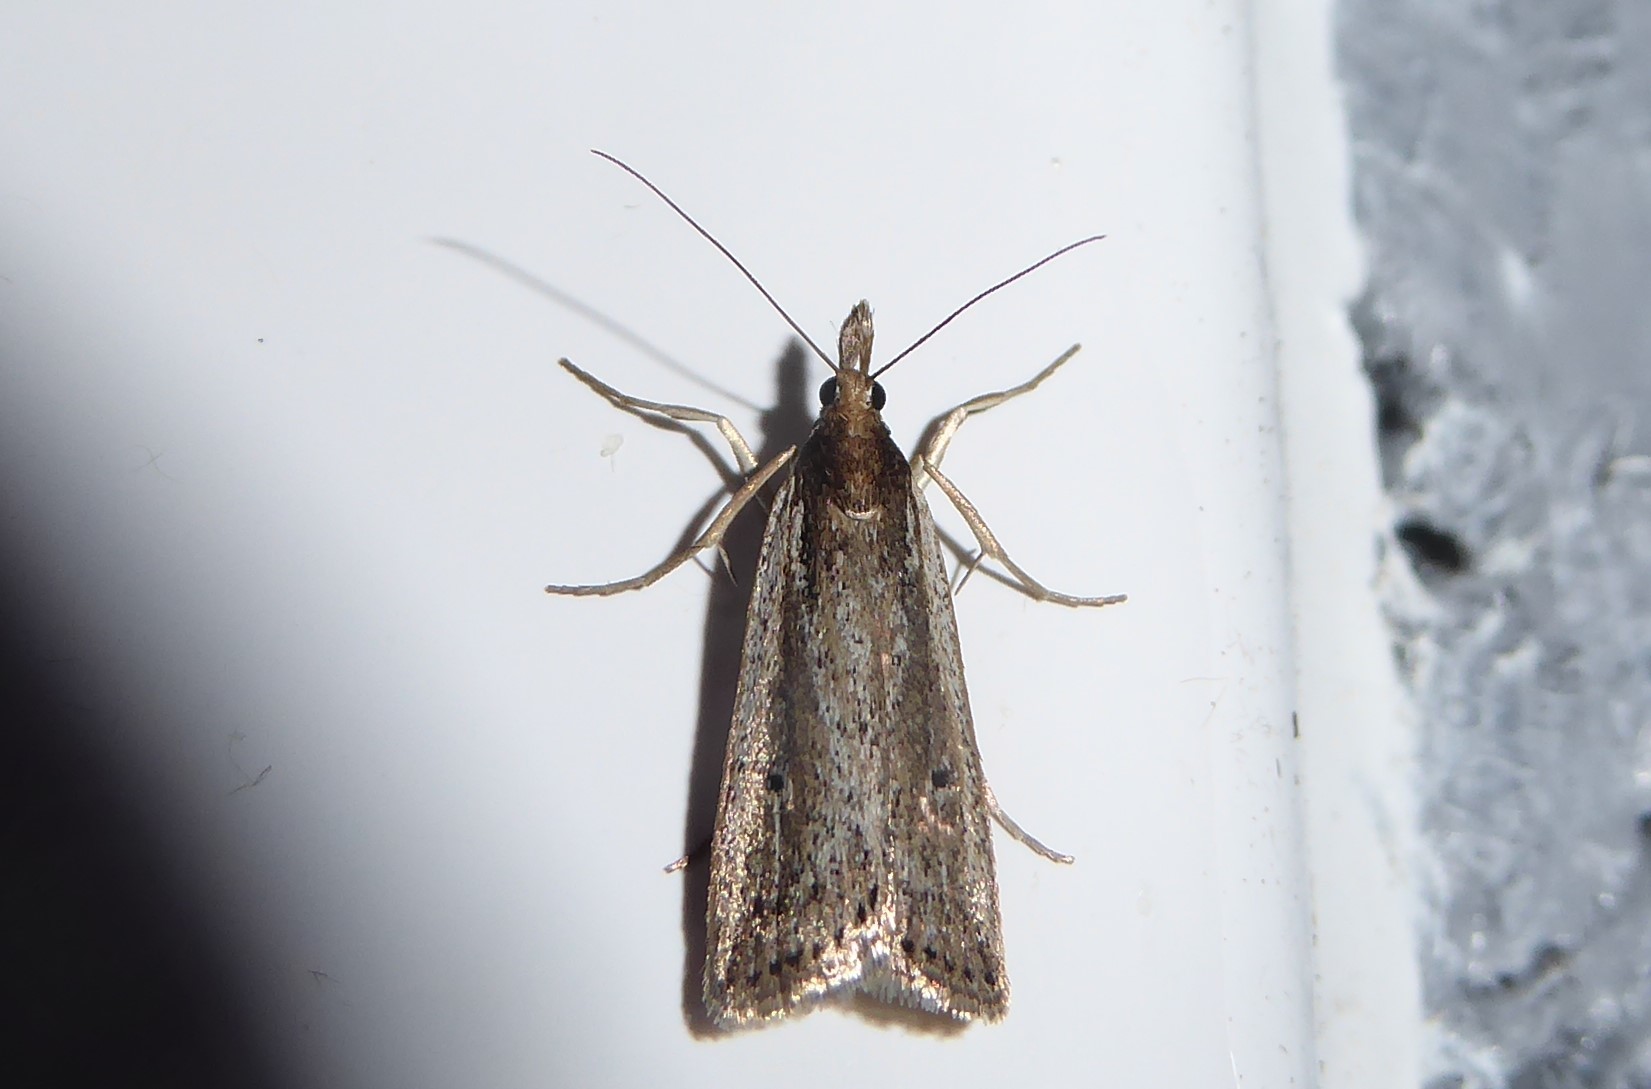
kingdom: Animalia
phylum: Arthropoda
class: Insecta
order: Lepidoptera
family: Crambidae
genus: Eudonia
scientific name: Eudonia sabulosella
